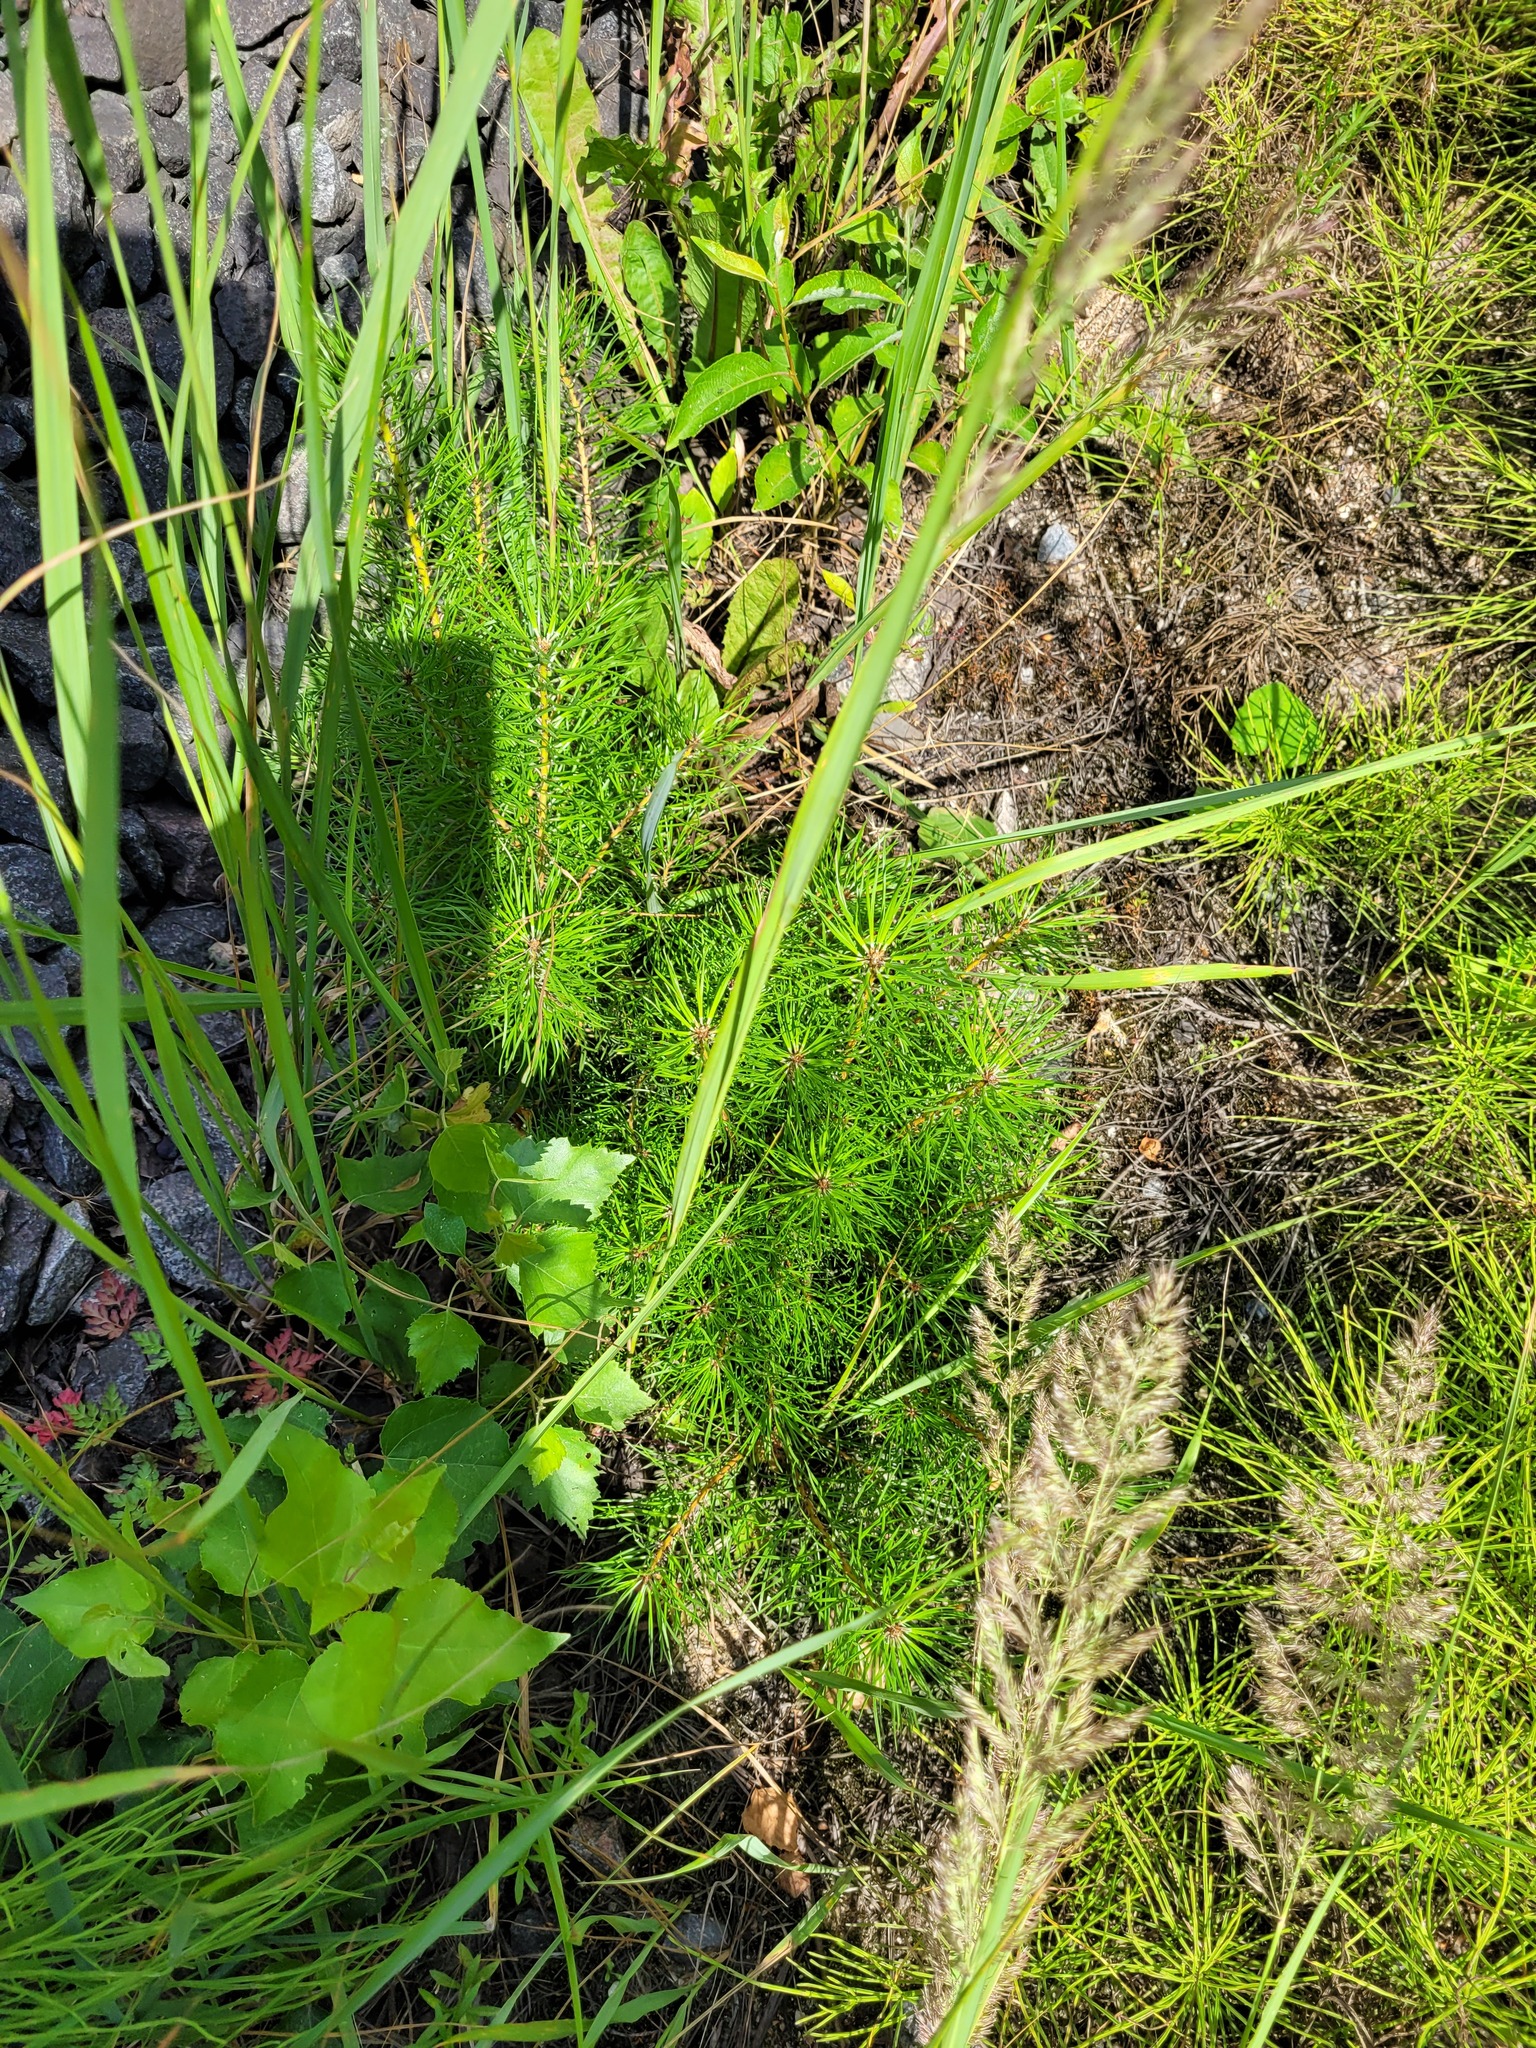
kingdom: Plantae
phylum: Tracheophyta
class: Pinopsida
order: Pinales
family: Pinaceae
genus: Pinus
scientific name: Pinus sylvestris
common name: Scots pine
